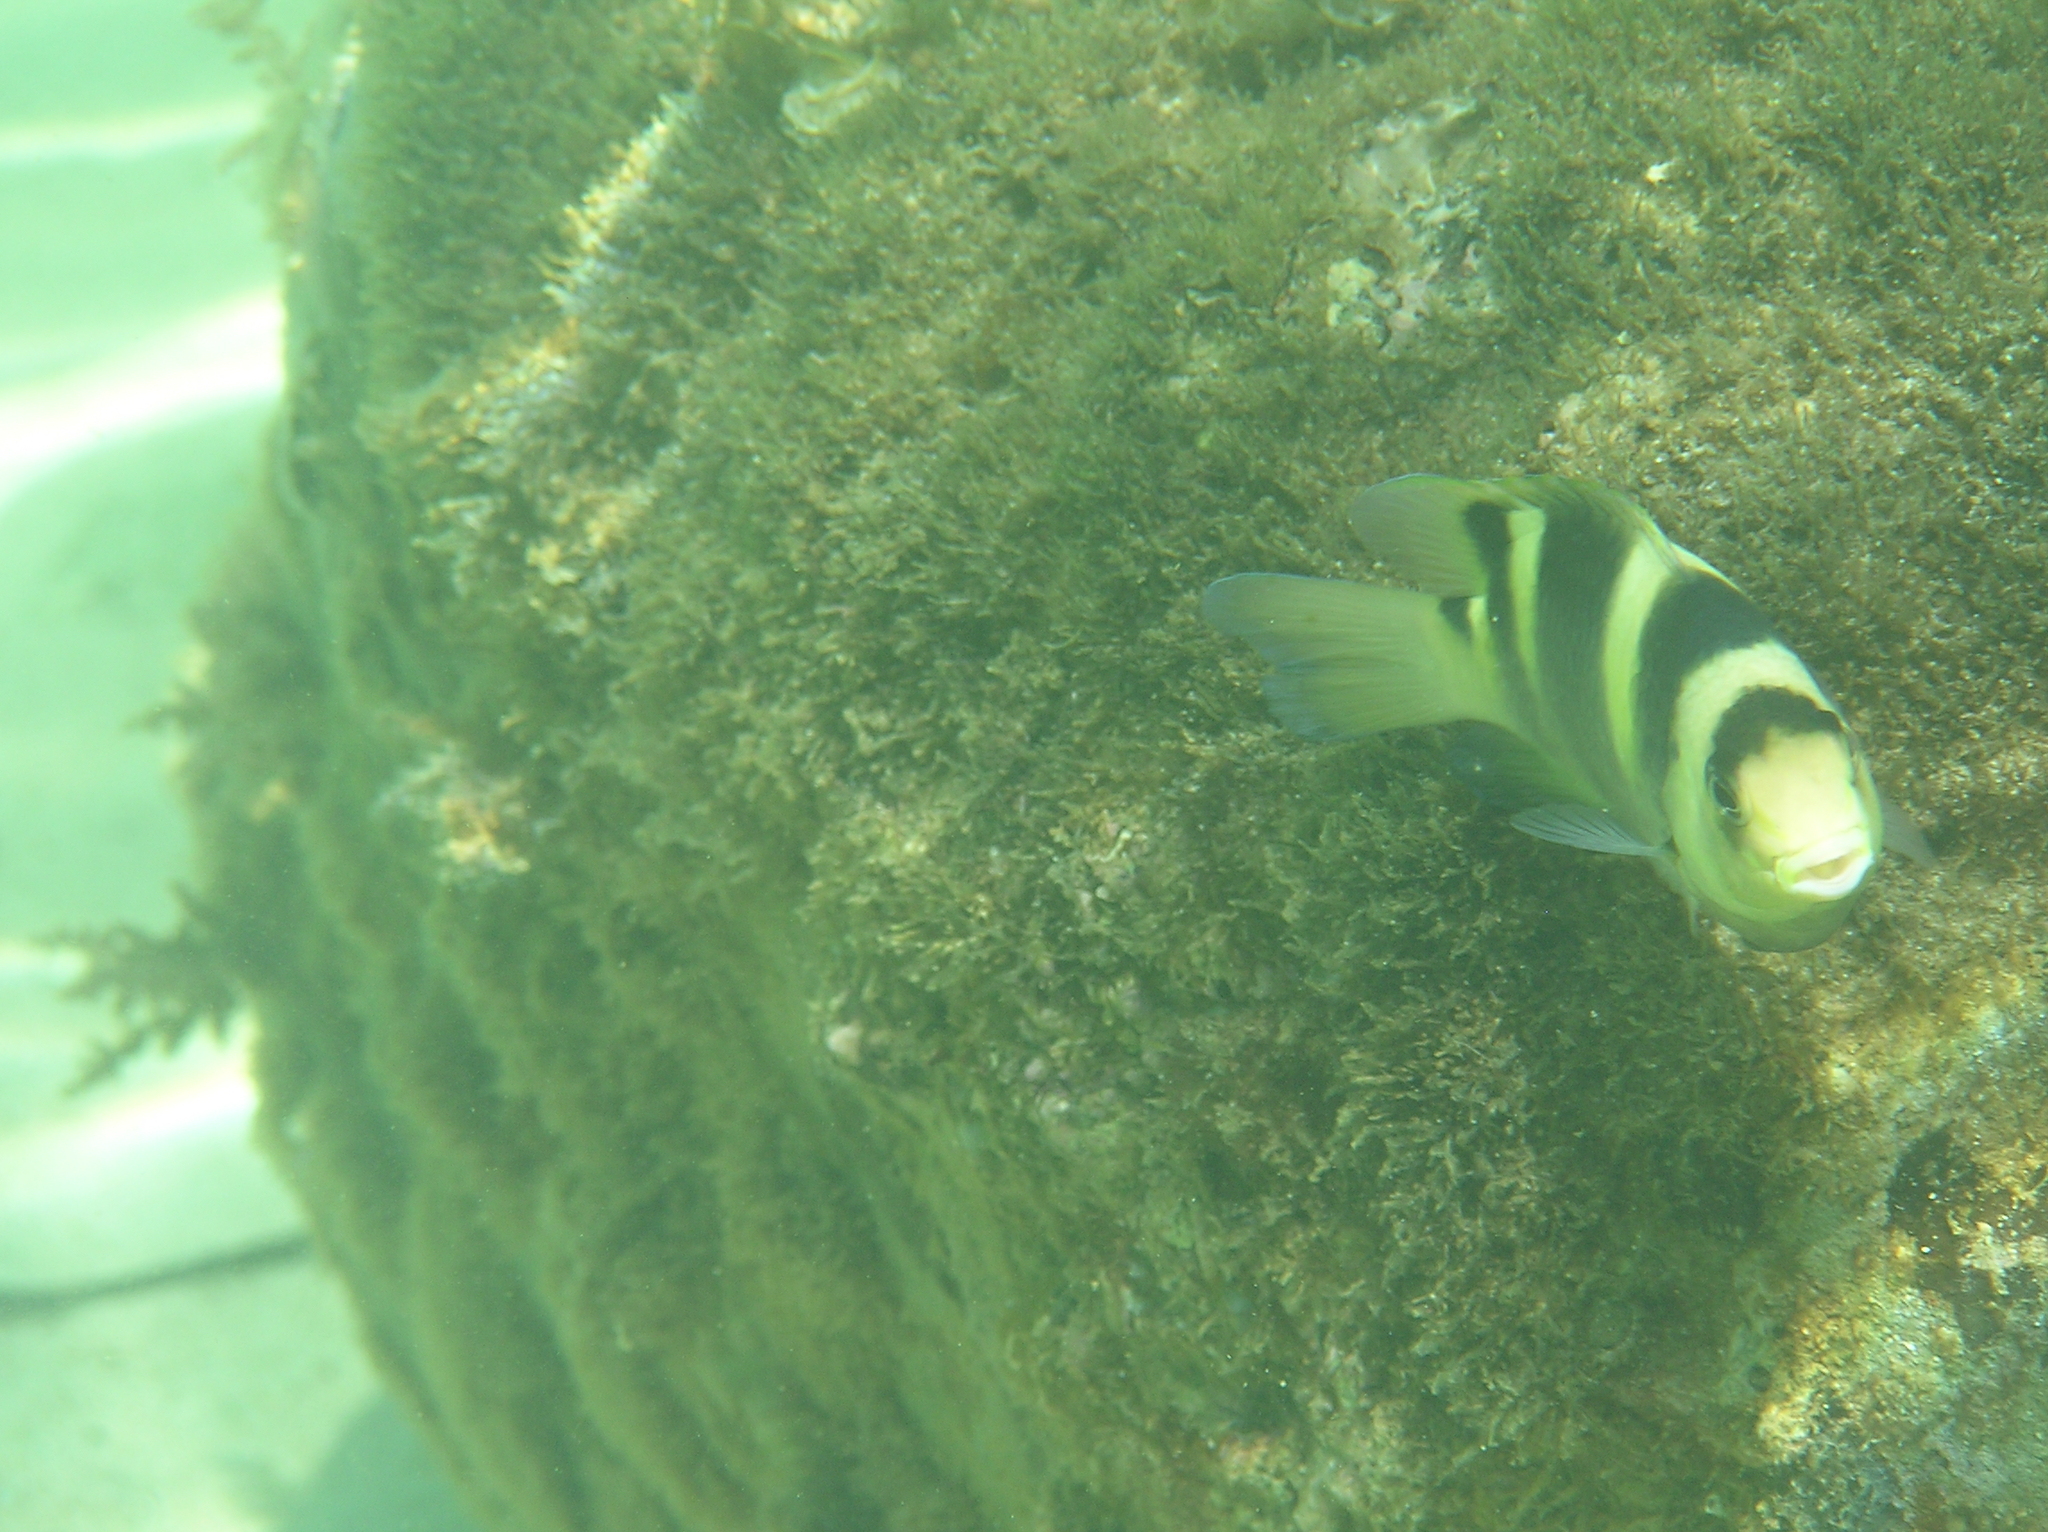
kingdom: Animalia
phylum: Chordata
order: Perciformes
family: Pomacentridae
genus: Dischistodus
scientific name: Dischistodus fasciatus
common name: Banded damsel
